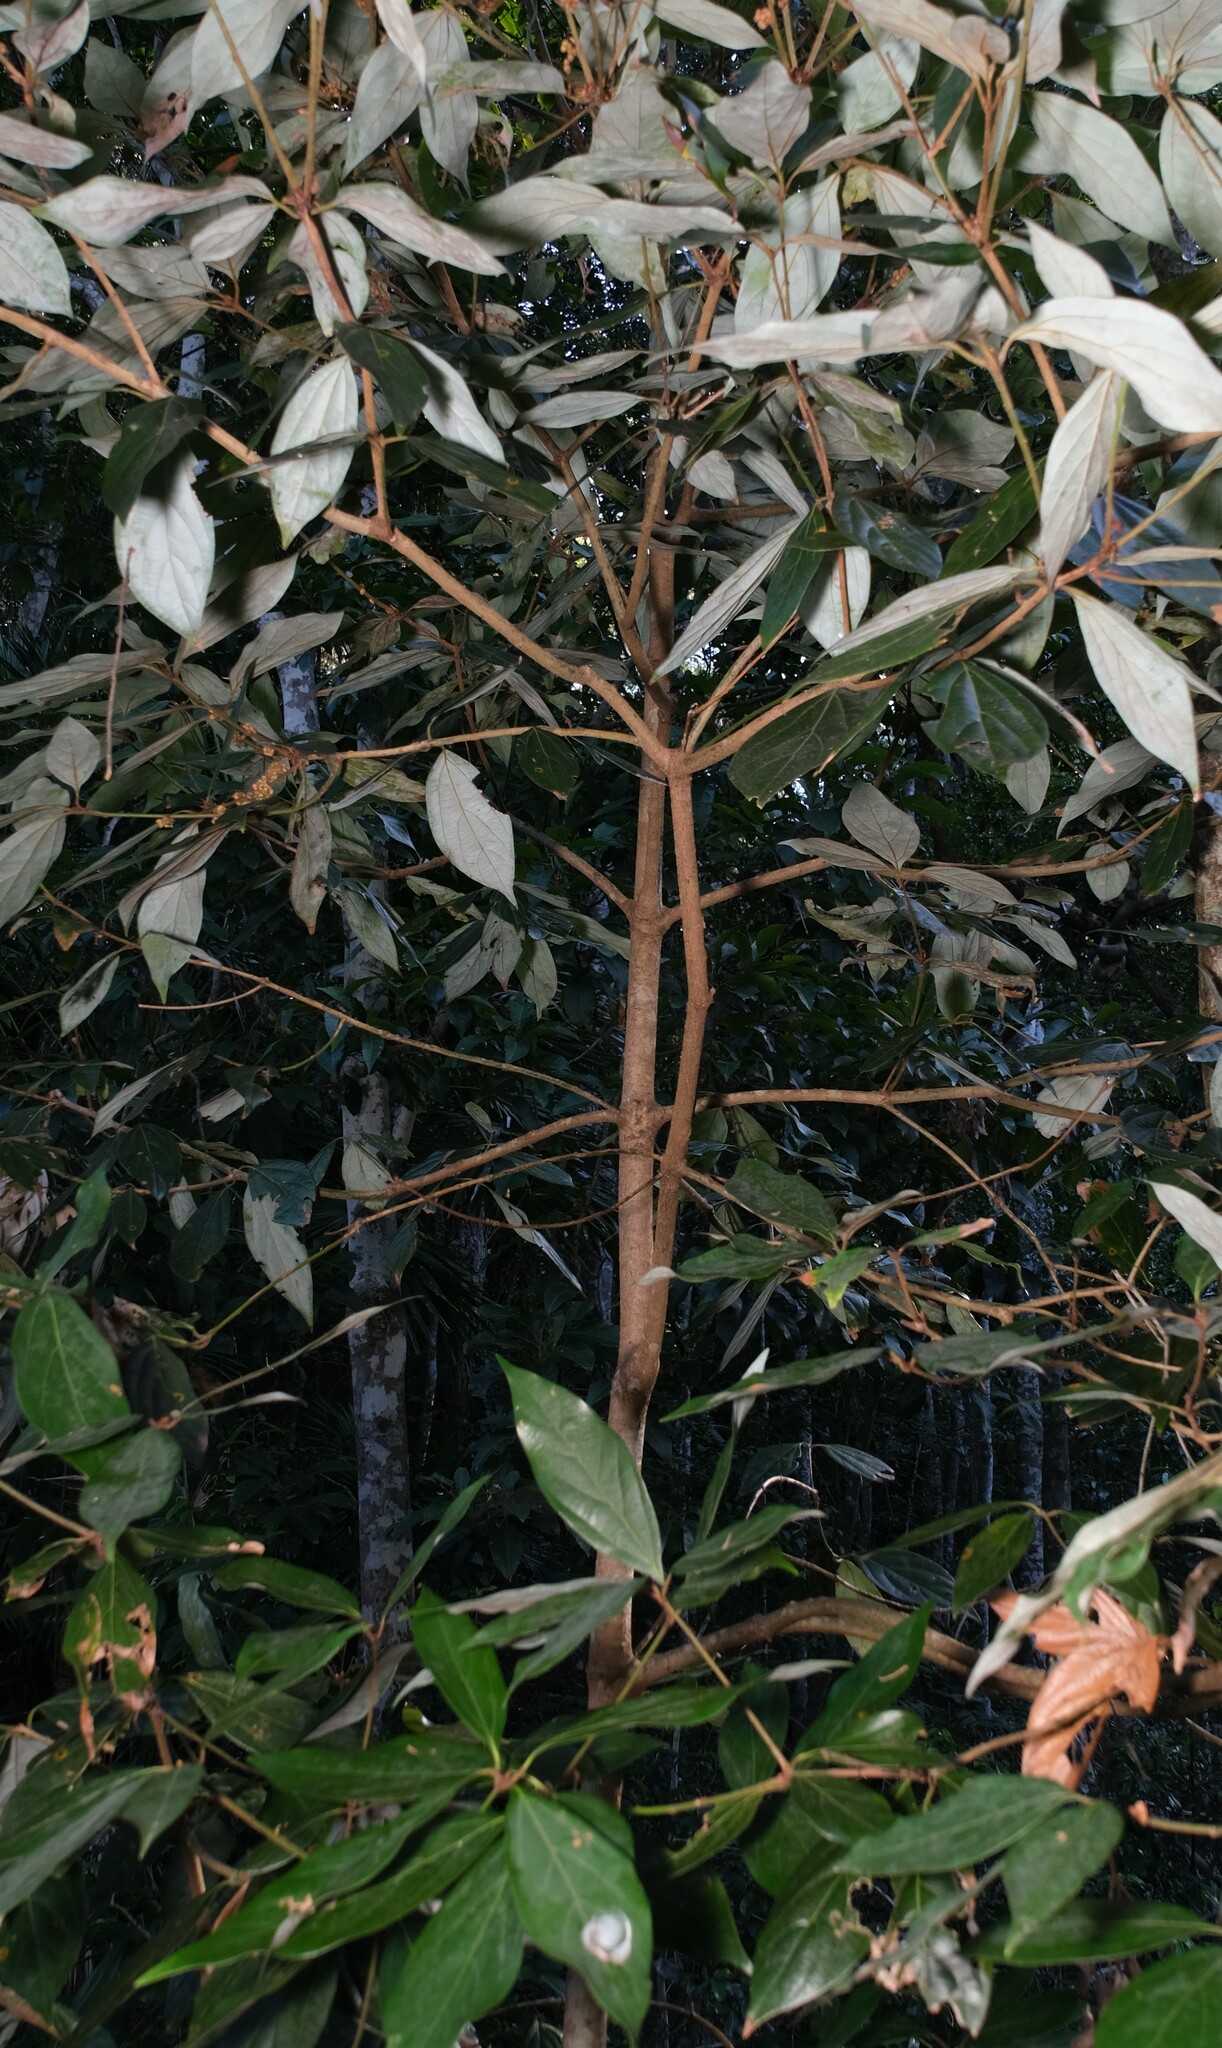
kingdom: Plantae
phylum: Tracheophyta
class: Magnoliopsida
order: Laurales
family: Lauraceae
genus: Neolitsea
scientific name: Neolitsea dealbata
